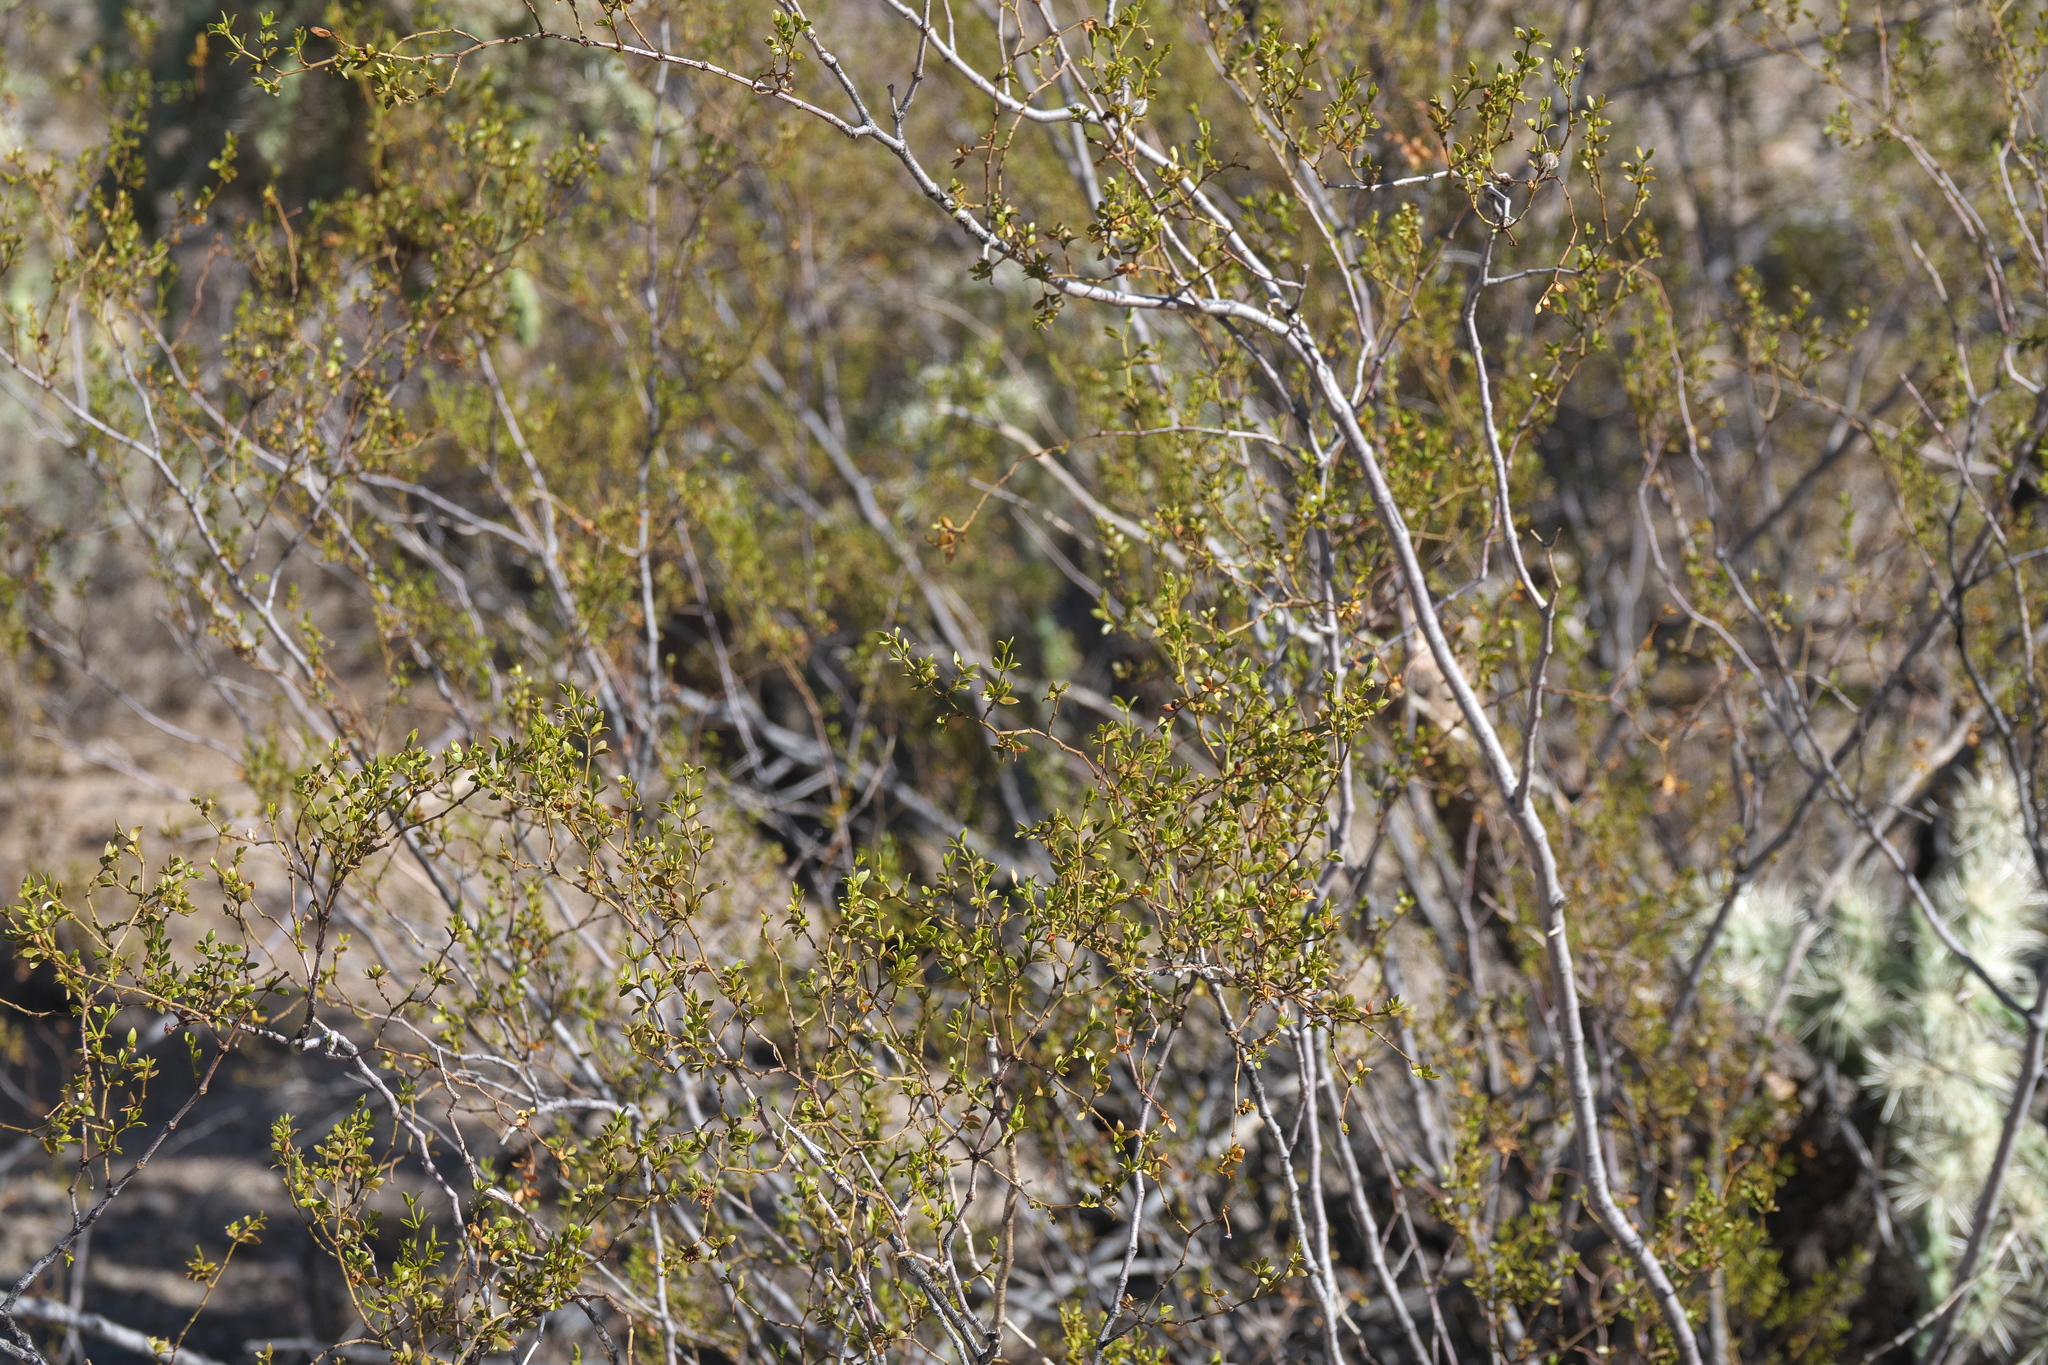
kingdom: Plantae
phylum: Tracheophyta
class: Magnoliopsida
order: Zygophyllales
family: Zygophyllaceae
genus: Larrea
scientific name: Larrea tridentata
